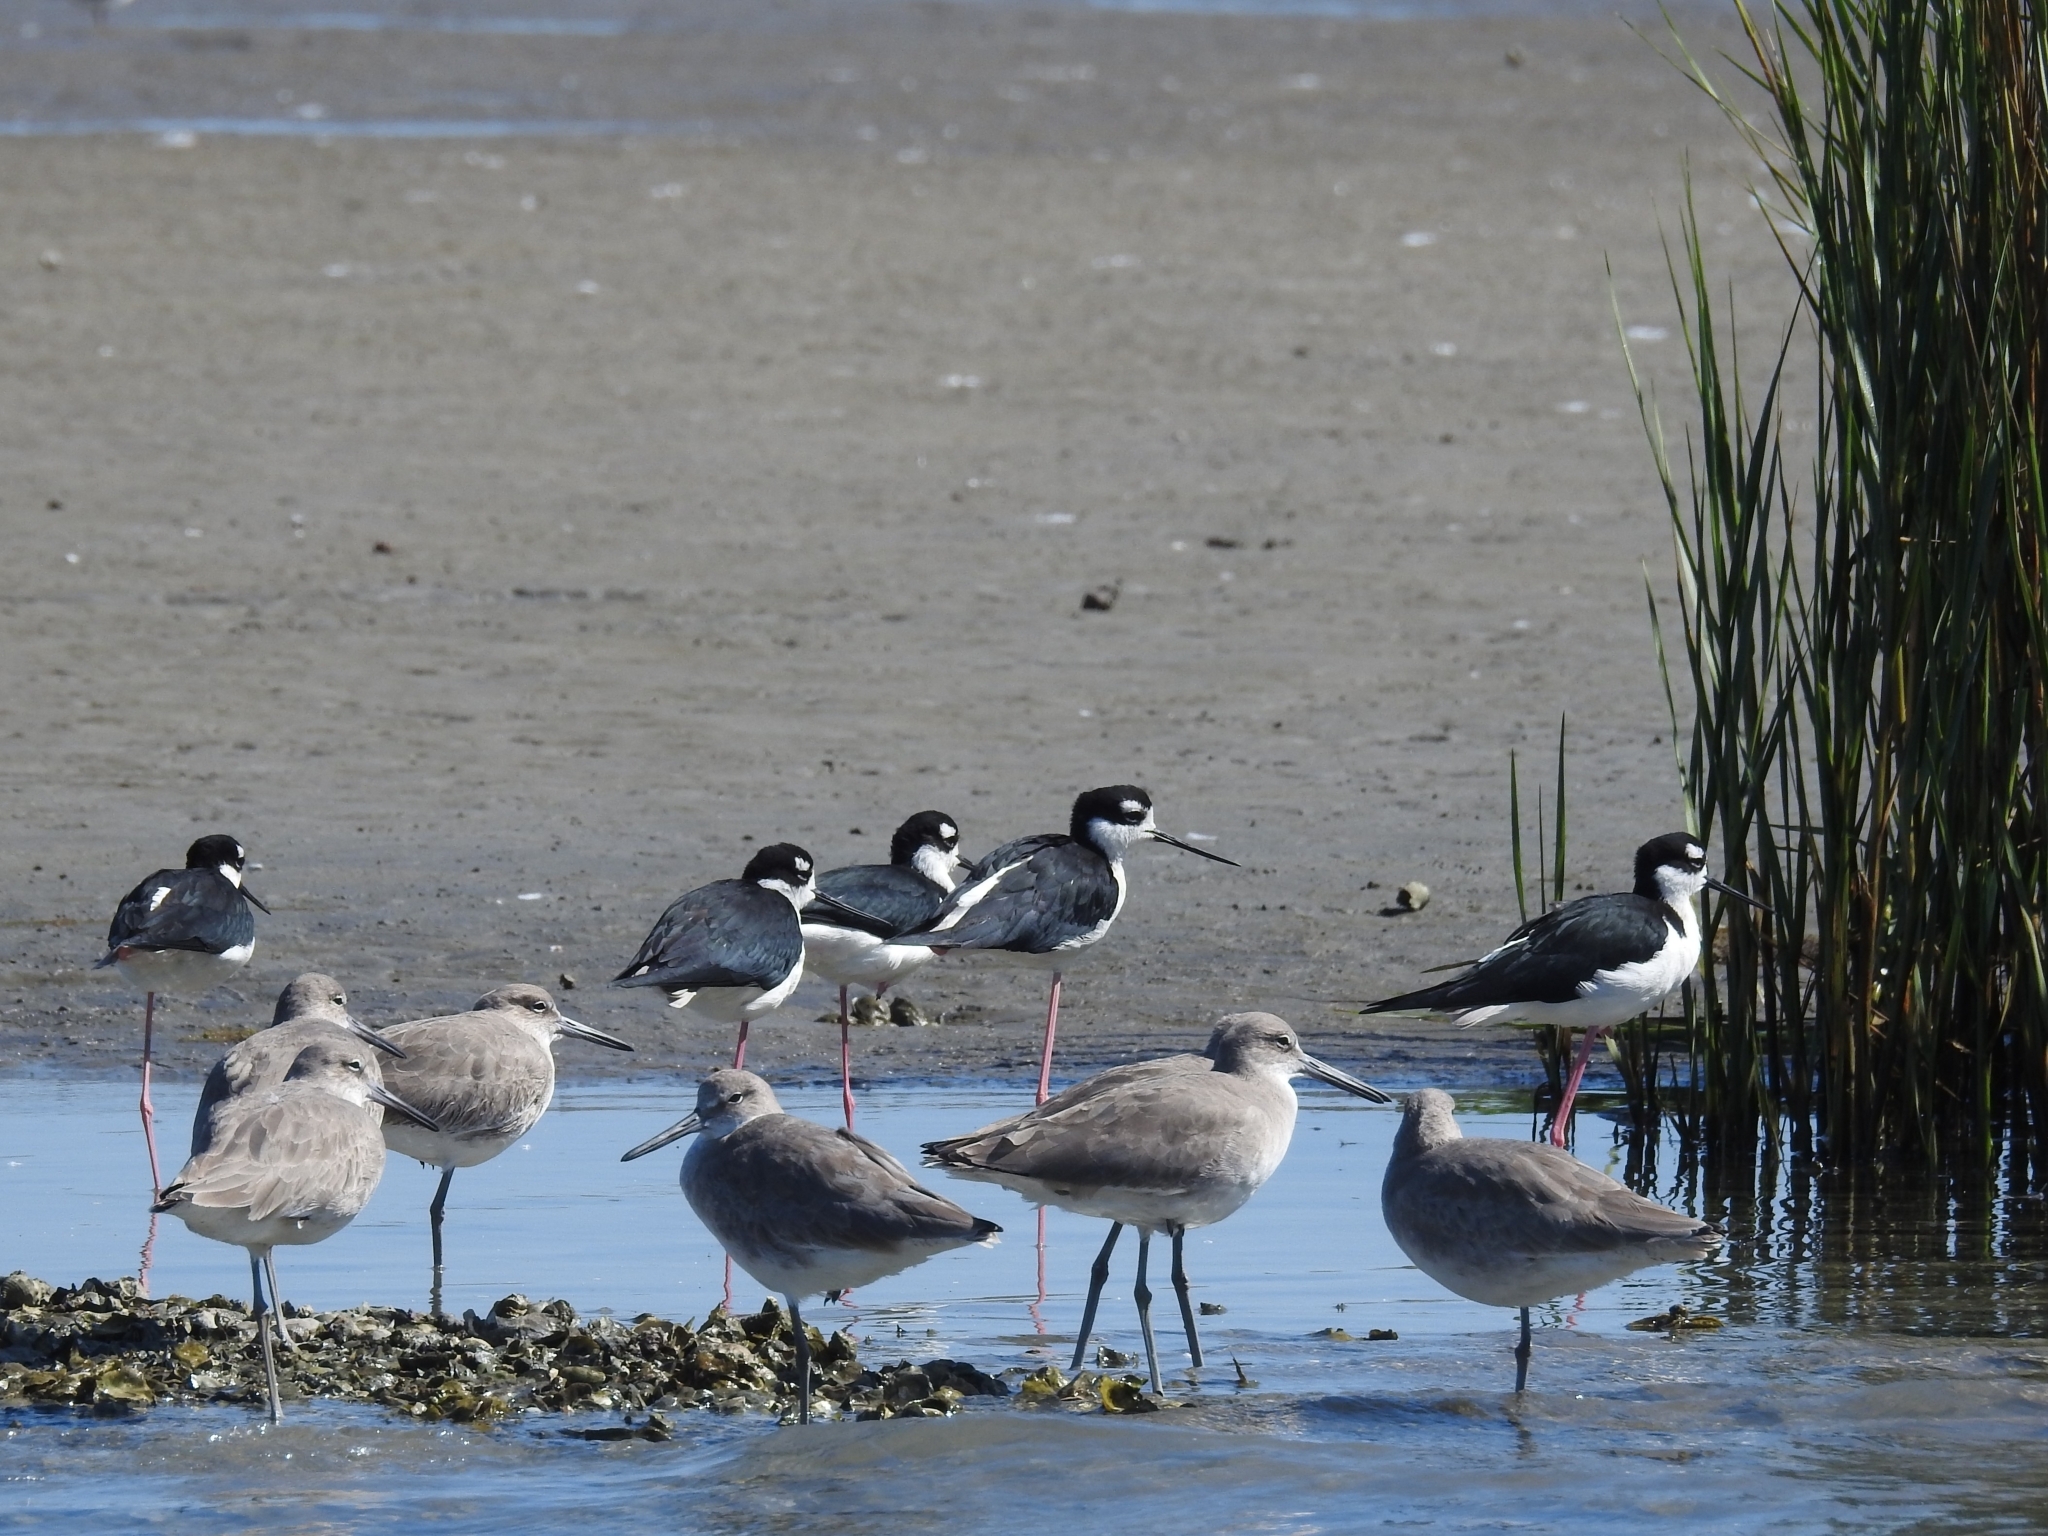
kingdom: Animalia
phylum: Chordata
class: Aves
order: Charadriiformes
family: Scolopacidae
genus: Tringa
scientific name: Tringa semipalmata
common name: Willet
